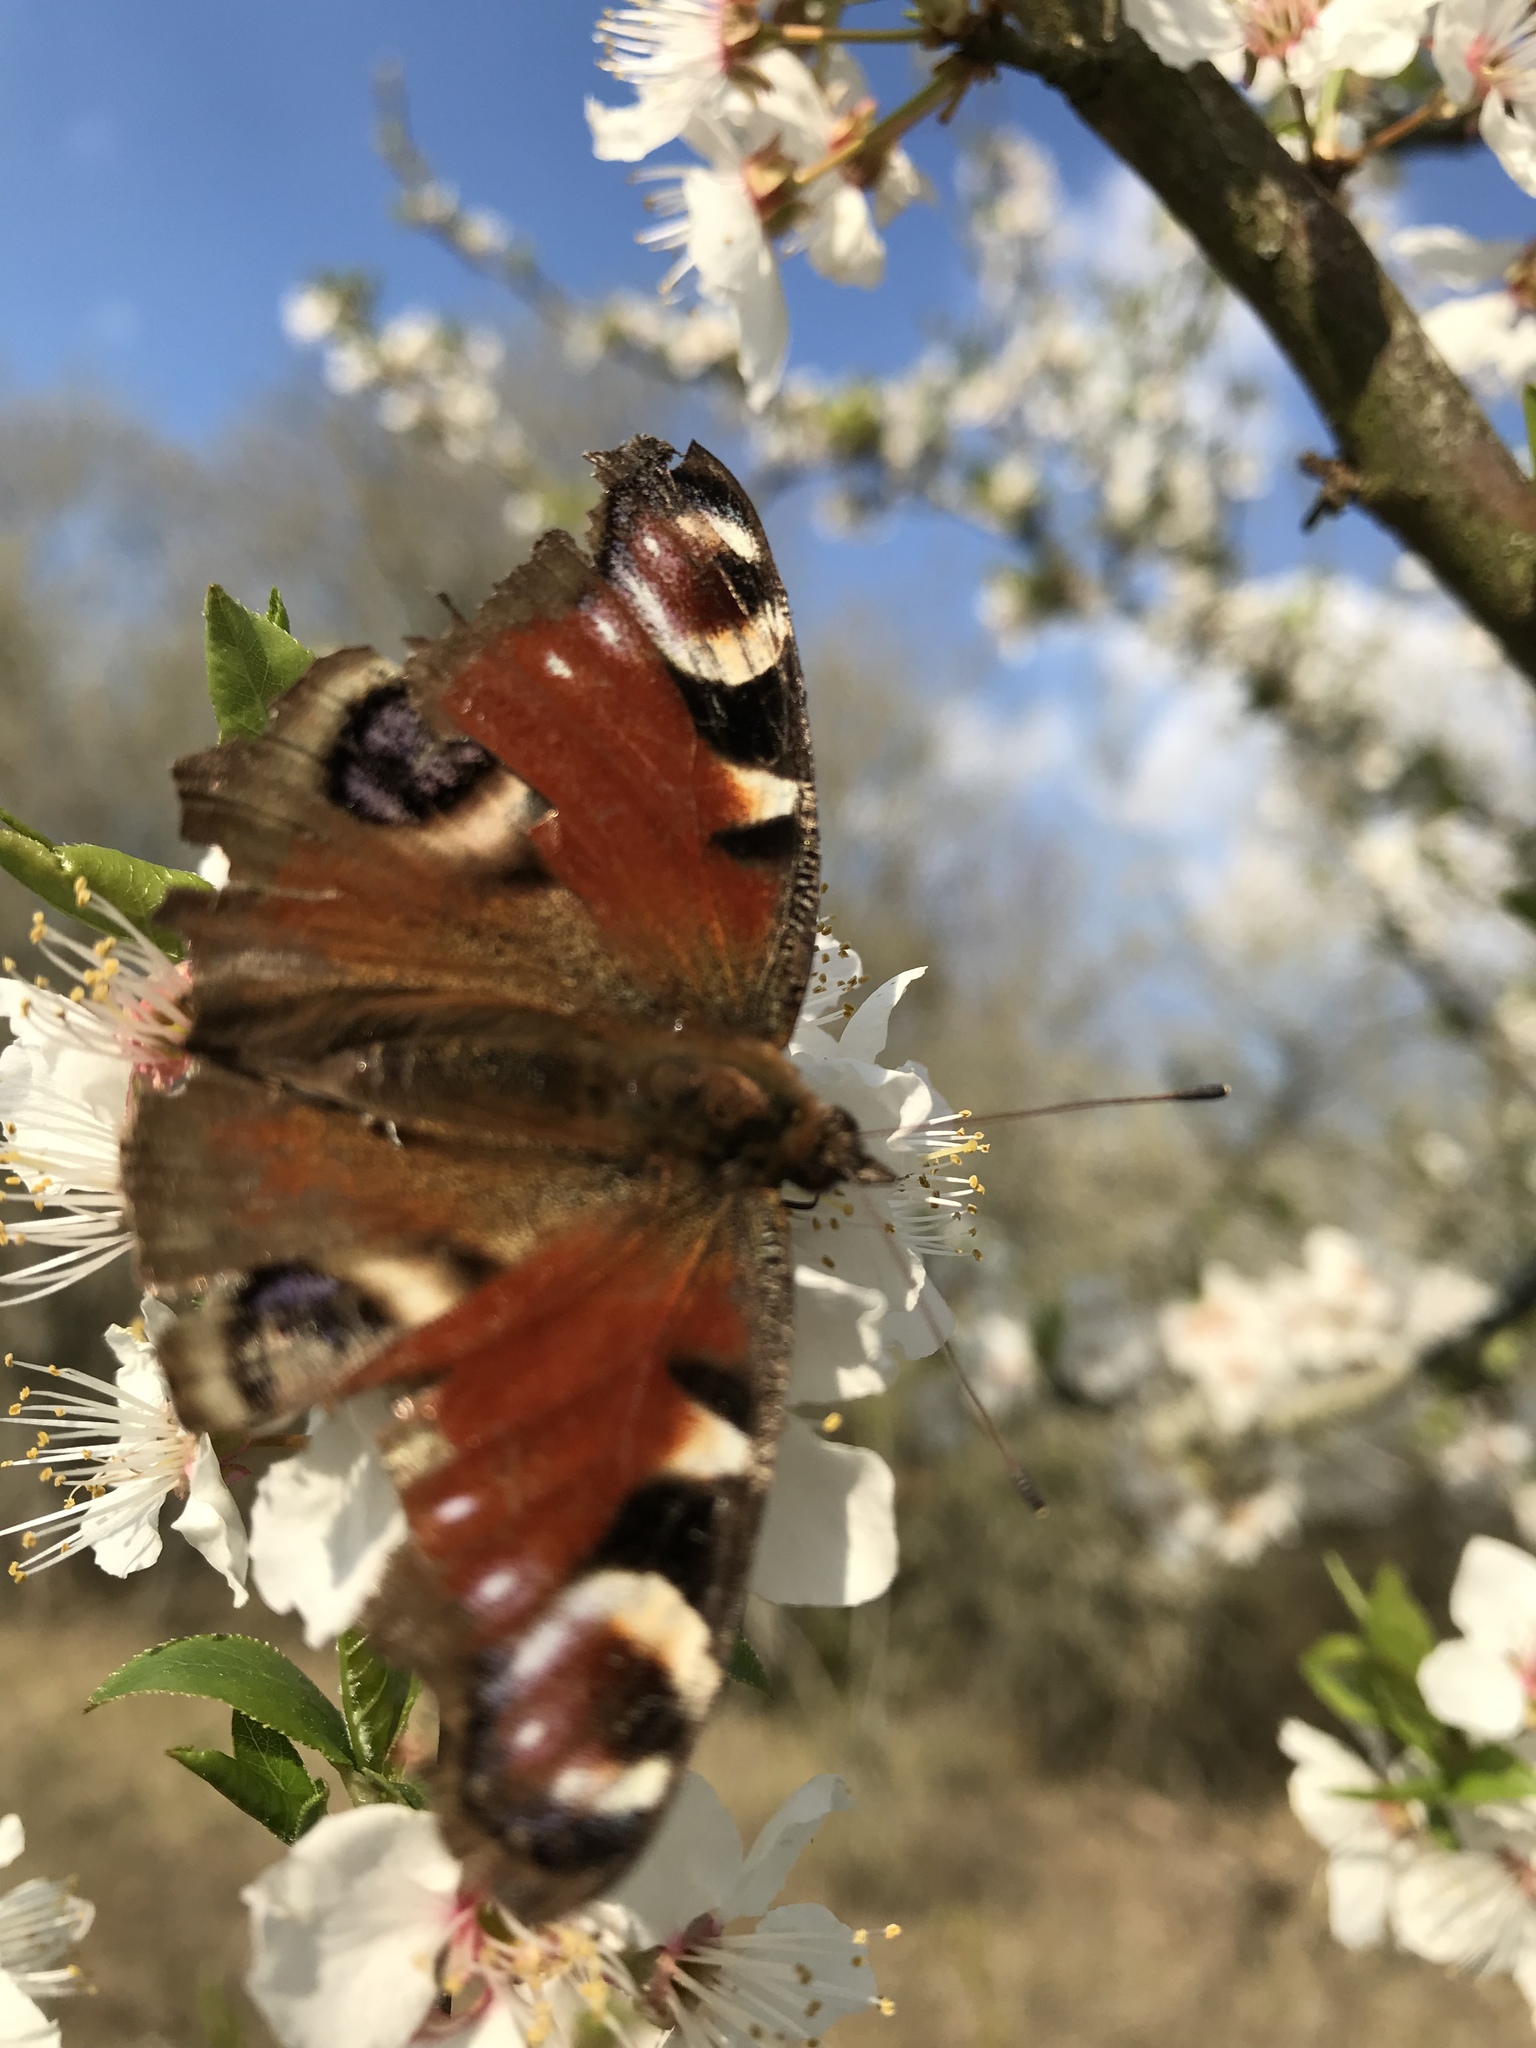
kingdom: Animalia
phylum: Arthropoda
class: Insecta
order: Lepidoptera
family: Nymphalidae
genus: Aglais
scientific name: Aglais io
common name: Peacock
